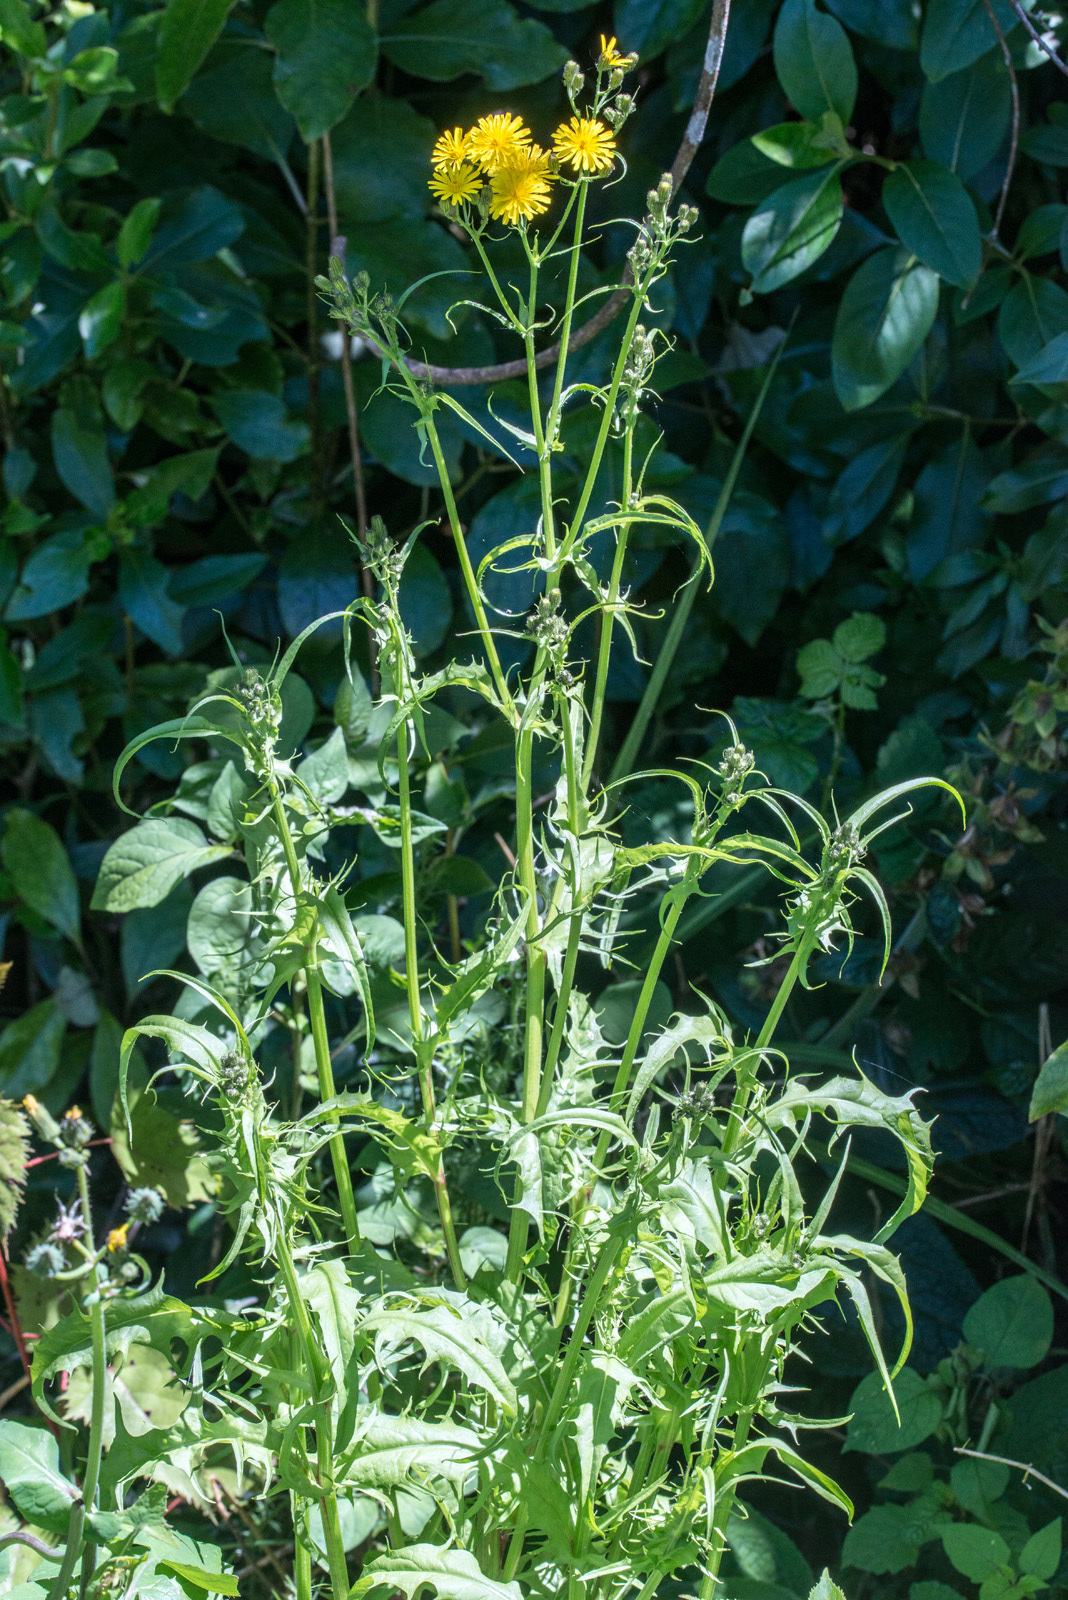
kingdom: Plantae
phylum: Tracheophyta
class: Magnoliopsida
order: Asterales
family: Asteraceae
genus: Crepis
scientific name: Crepis capillaris
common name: Smooth hawksbeard
